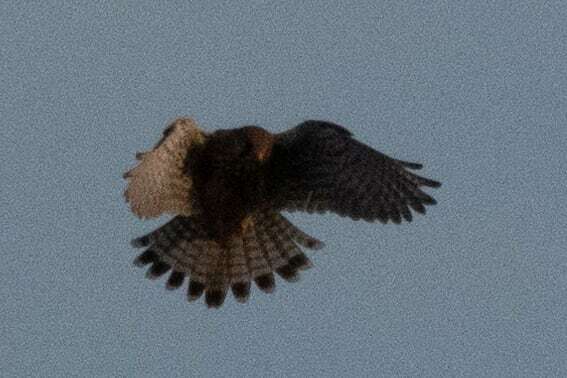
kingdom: Animalia
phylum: Chordata
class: Aves
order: Falconiformes
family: Falconidae
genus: Falco
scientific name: Falco tinnunculus
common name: Common kestrel
